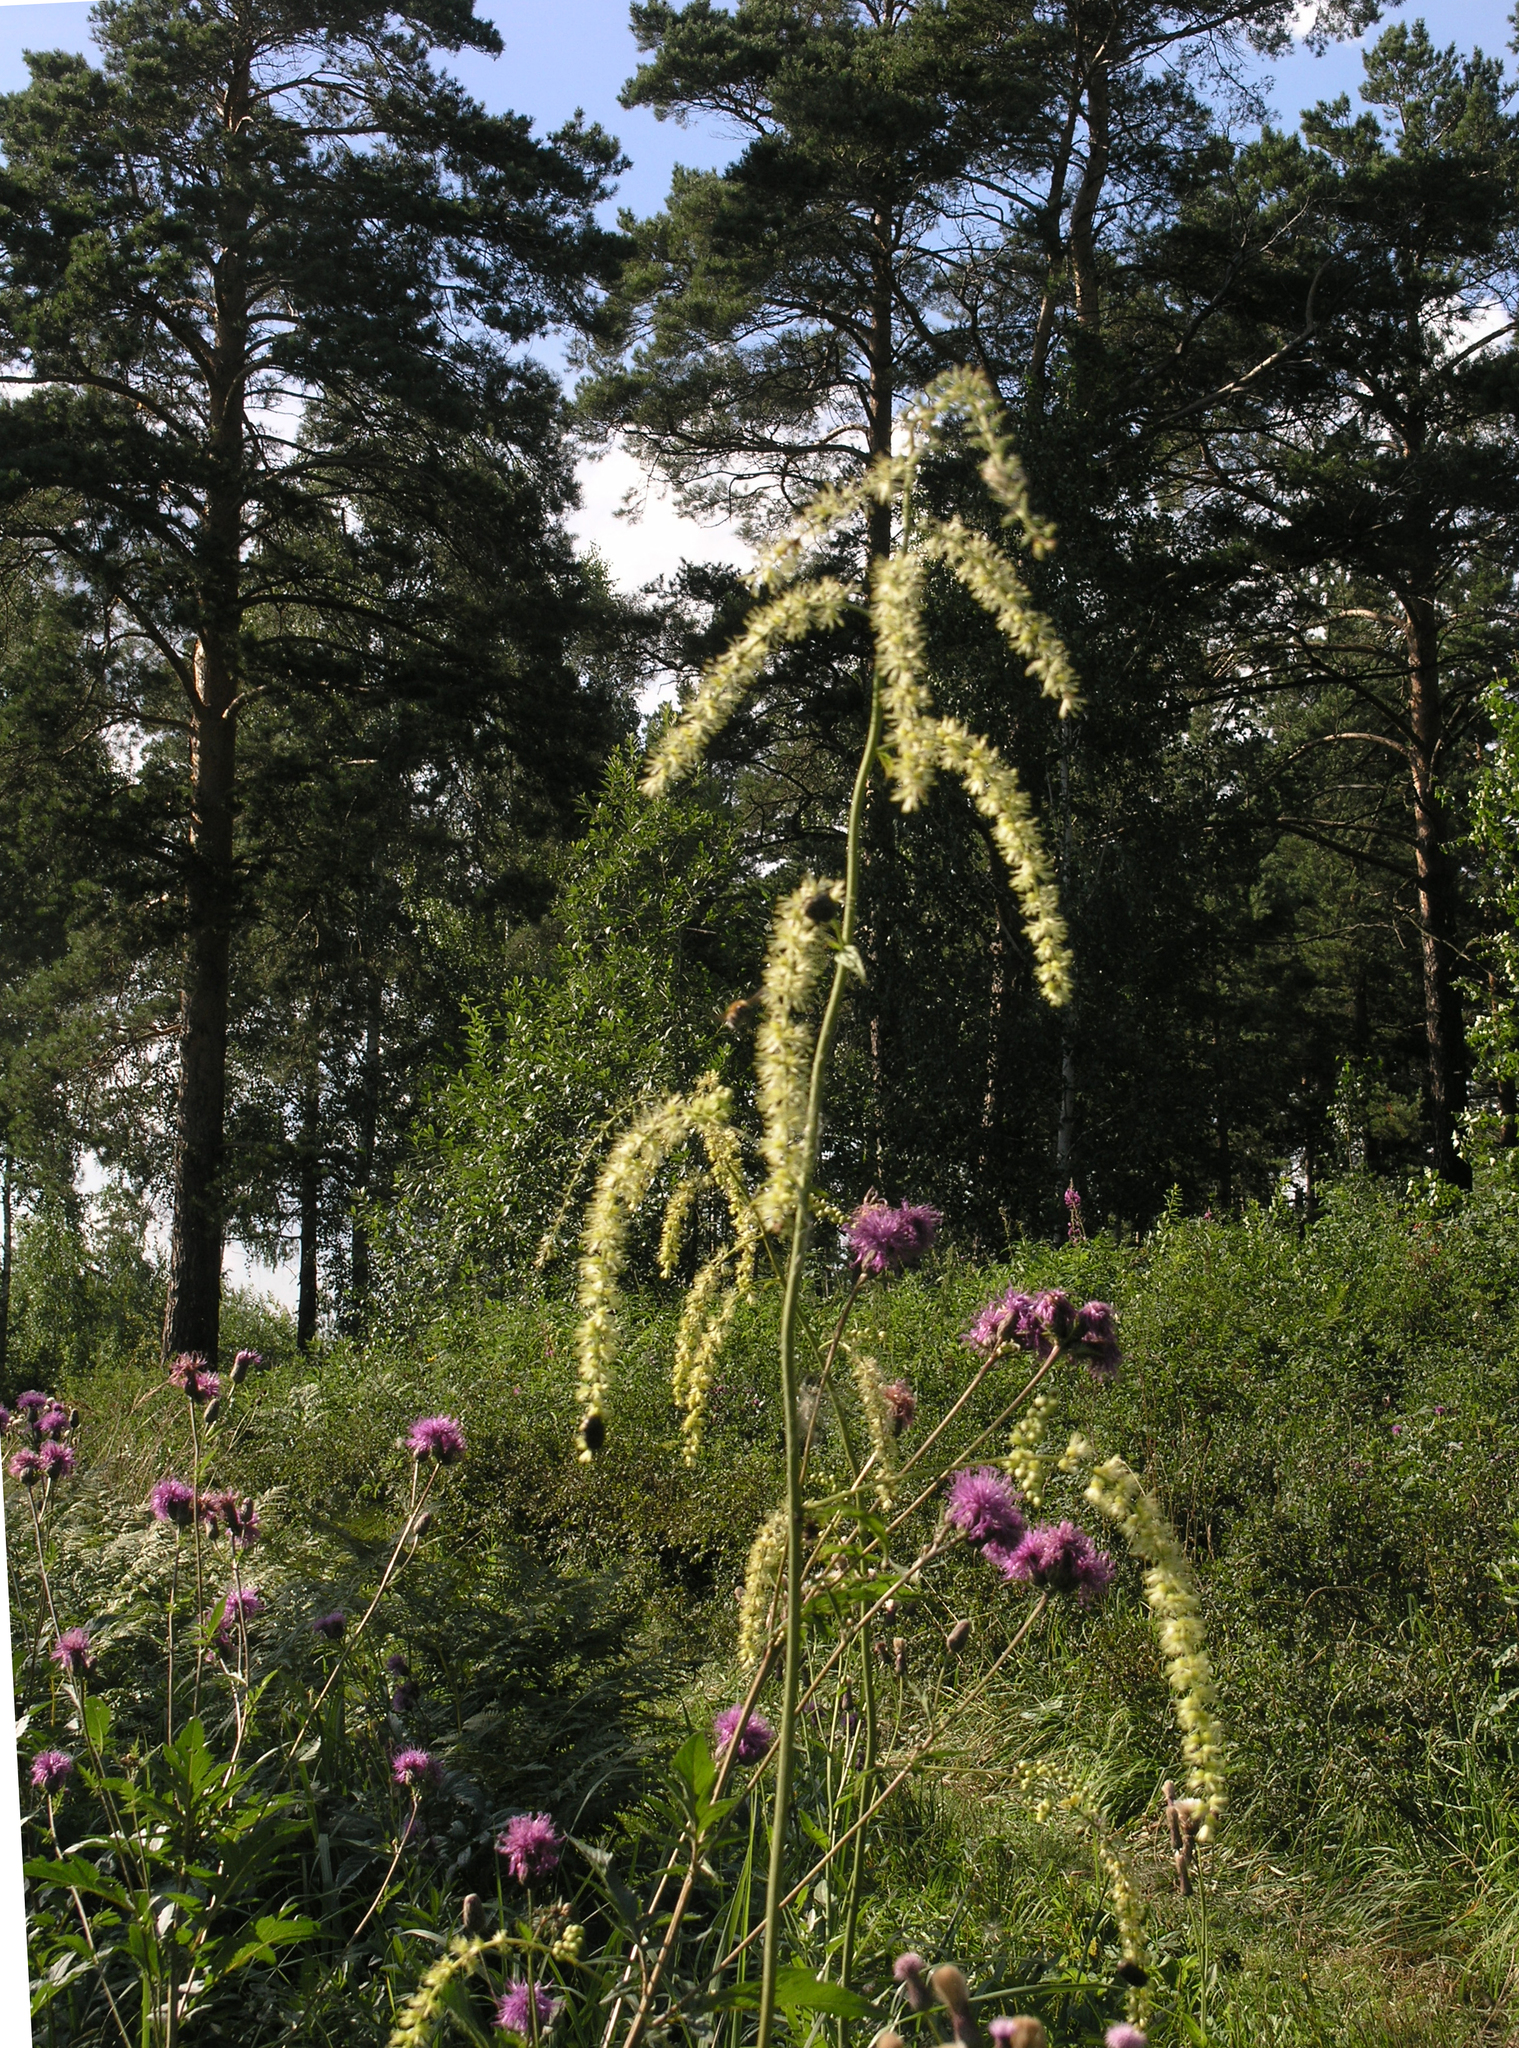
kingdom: Plantae
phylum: Tracheophyta
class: Magnoliopsida
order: Ranunculales
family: Ranunculaceae
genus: Actaea
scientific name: Actaea cimicifuga
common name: Chinese cimicifuga
